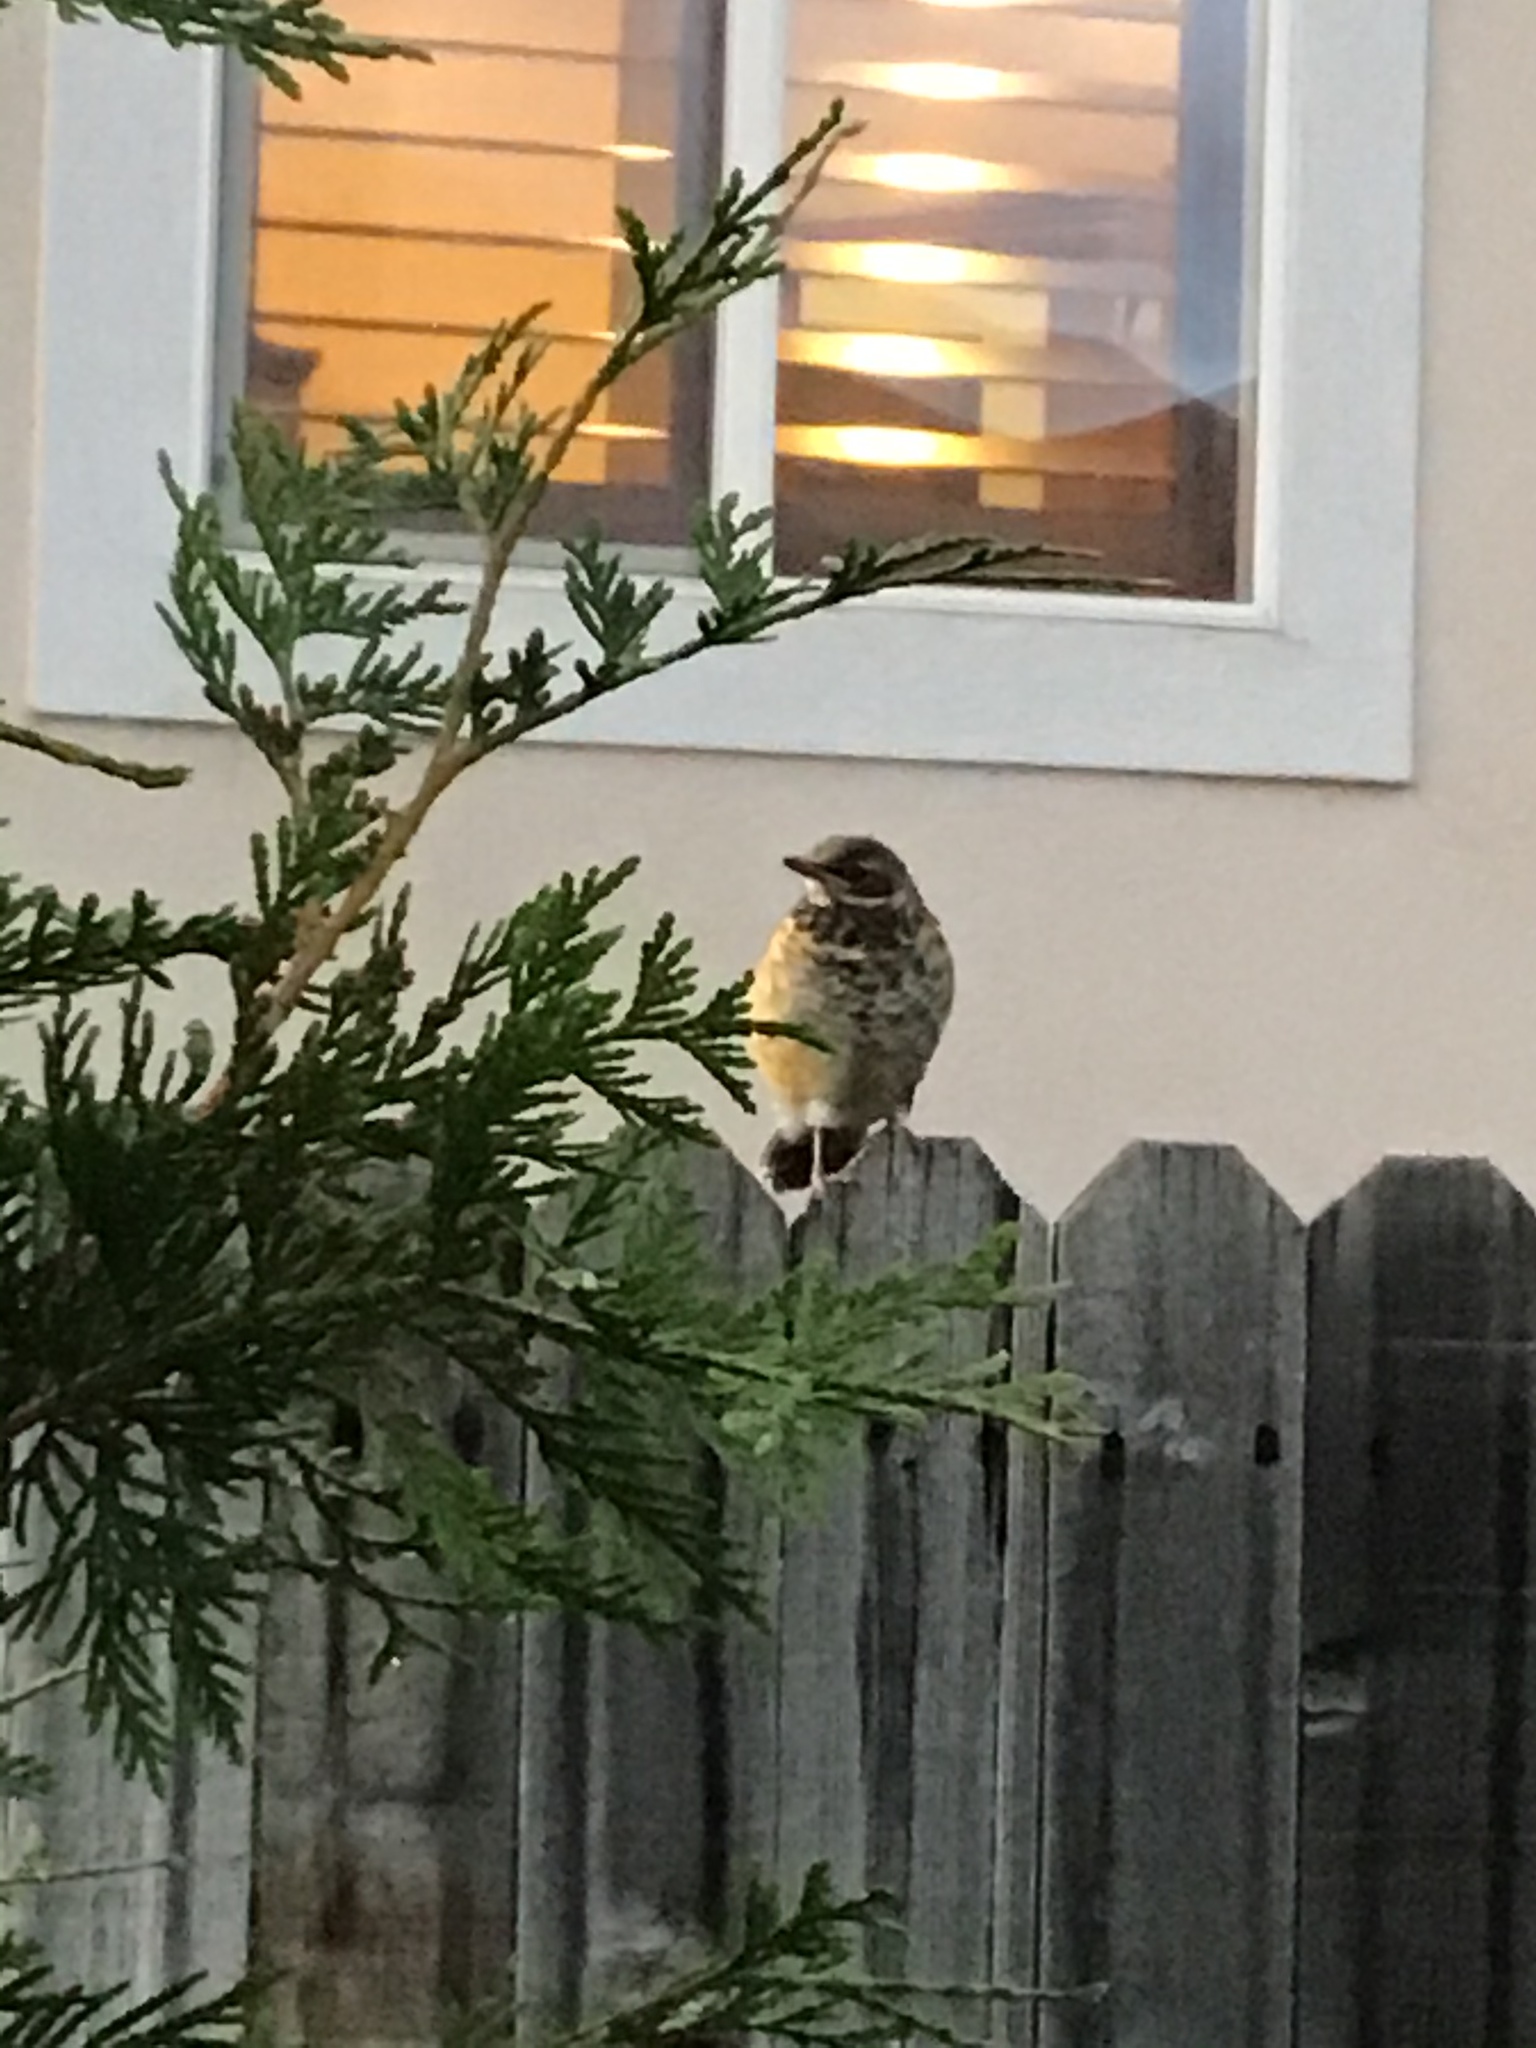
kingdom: Animalia
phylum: Chordata
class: Aves
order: Passeriformes
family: Turdidae
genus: Turdus
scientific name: Turdus migratorius
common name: American robin
